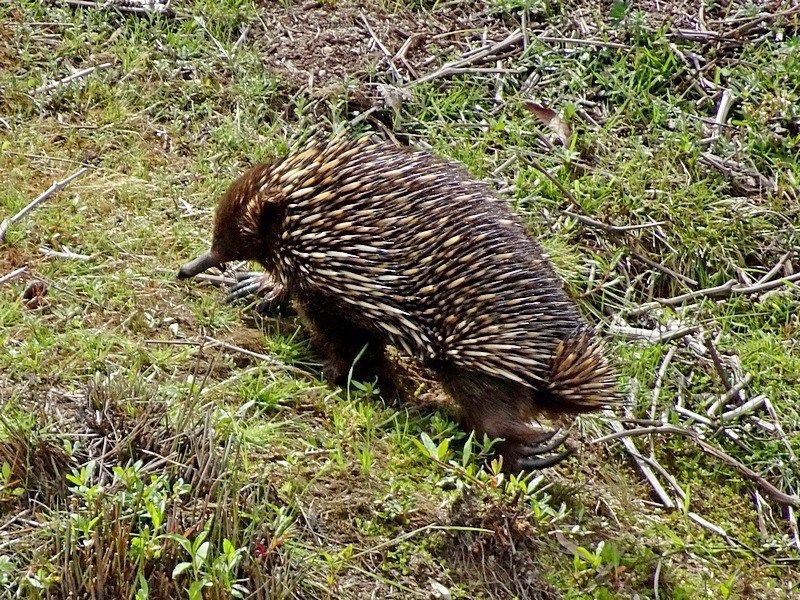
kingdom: Animalia
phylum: Chordata
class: Mammalia
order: Monotremata
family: Tachyglossidae
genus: Tachyglossus
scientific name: Tachyglossus aculeatus
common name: Short-beaked echidna
